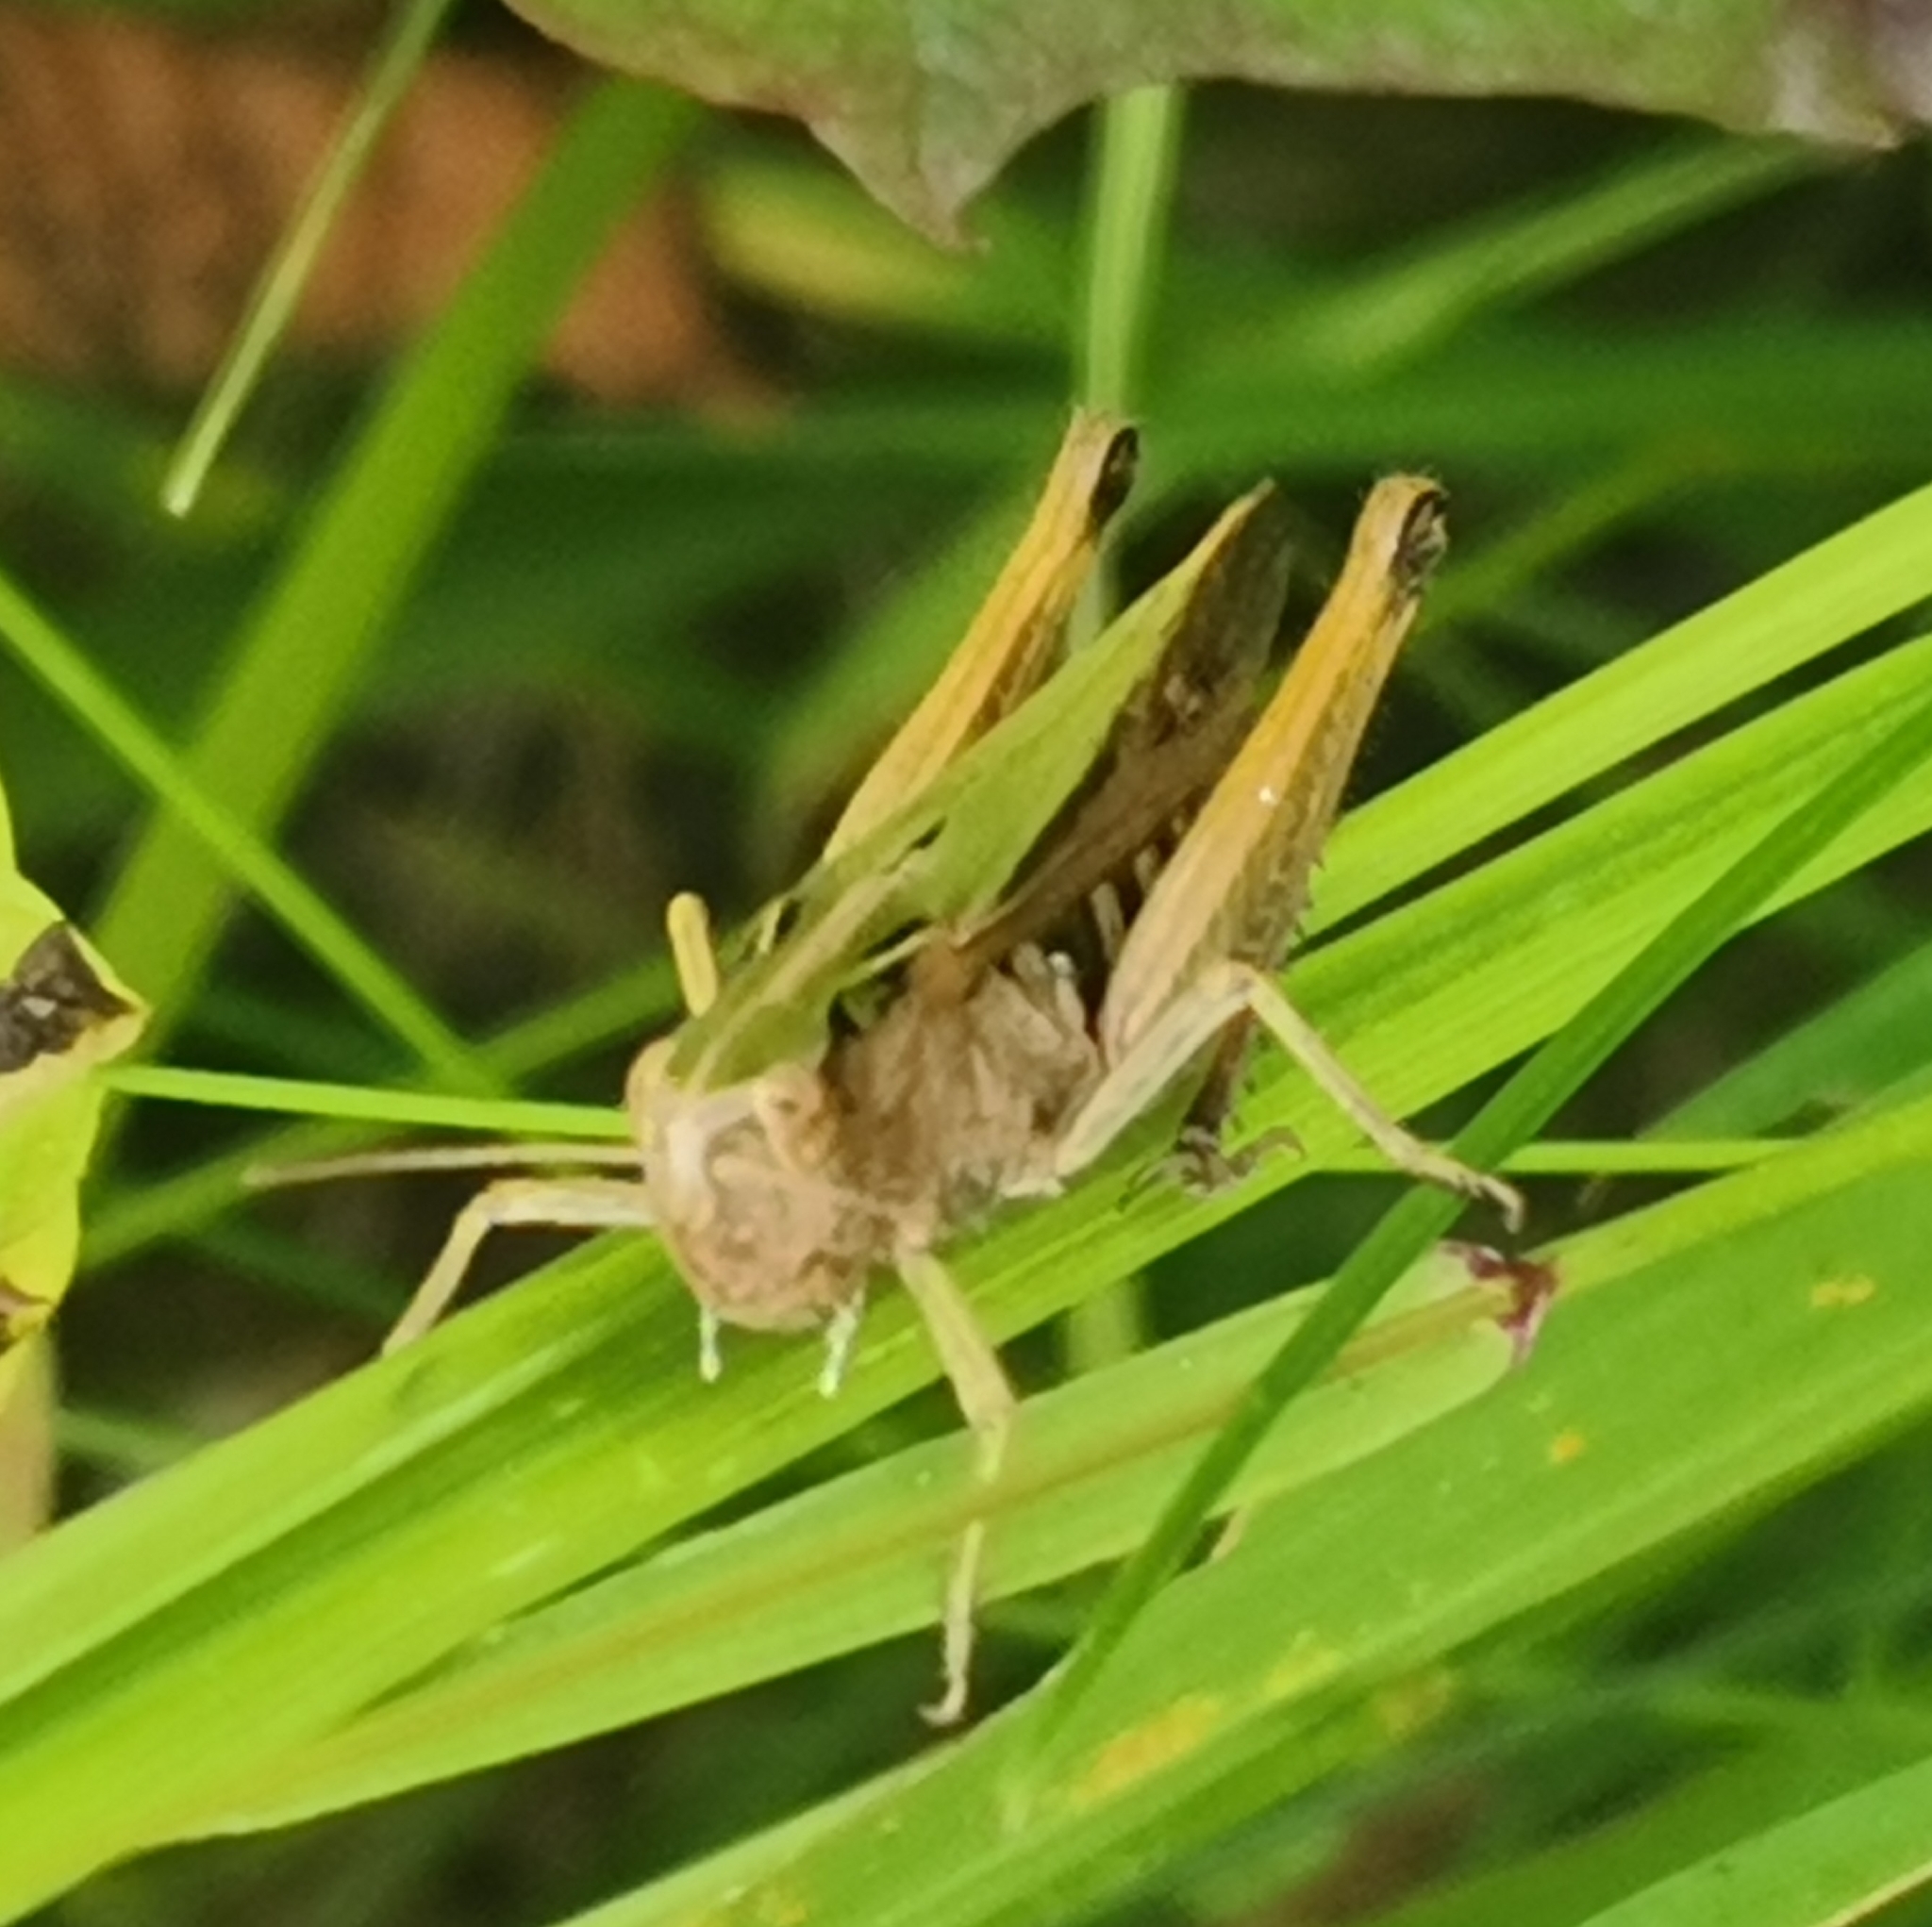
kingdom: Animalia
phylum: Arthropoda
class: Insecta
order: Orthoptera
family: Acrididae
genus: Omocestus
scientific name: Omocestus viridulus
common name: Common green grasshopper
